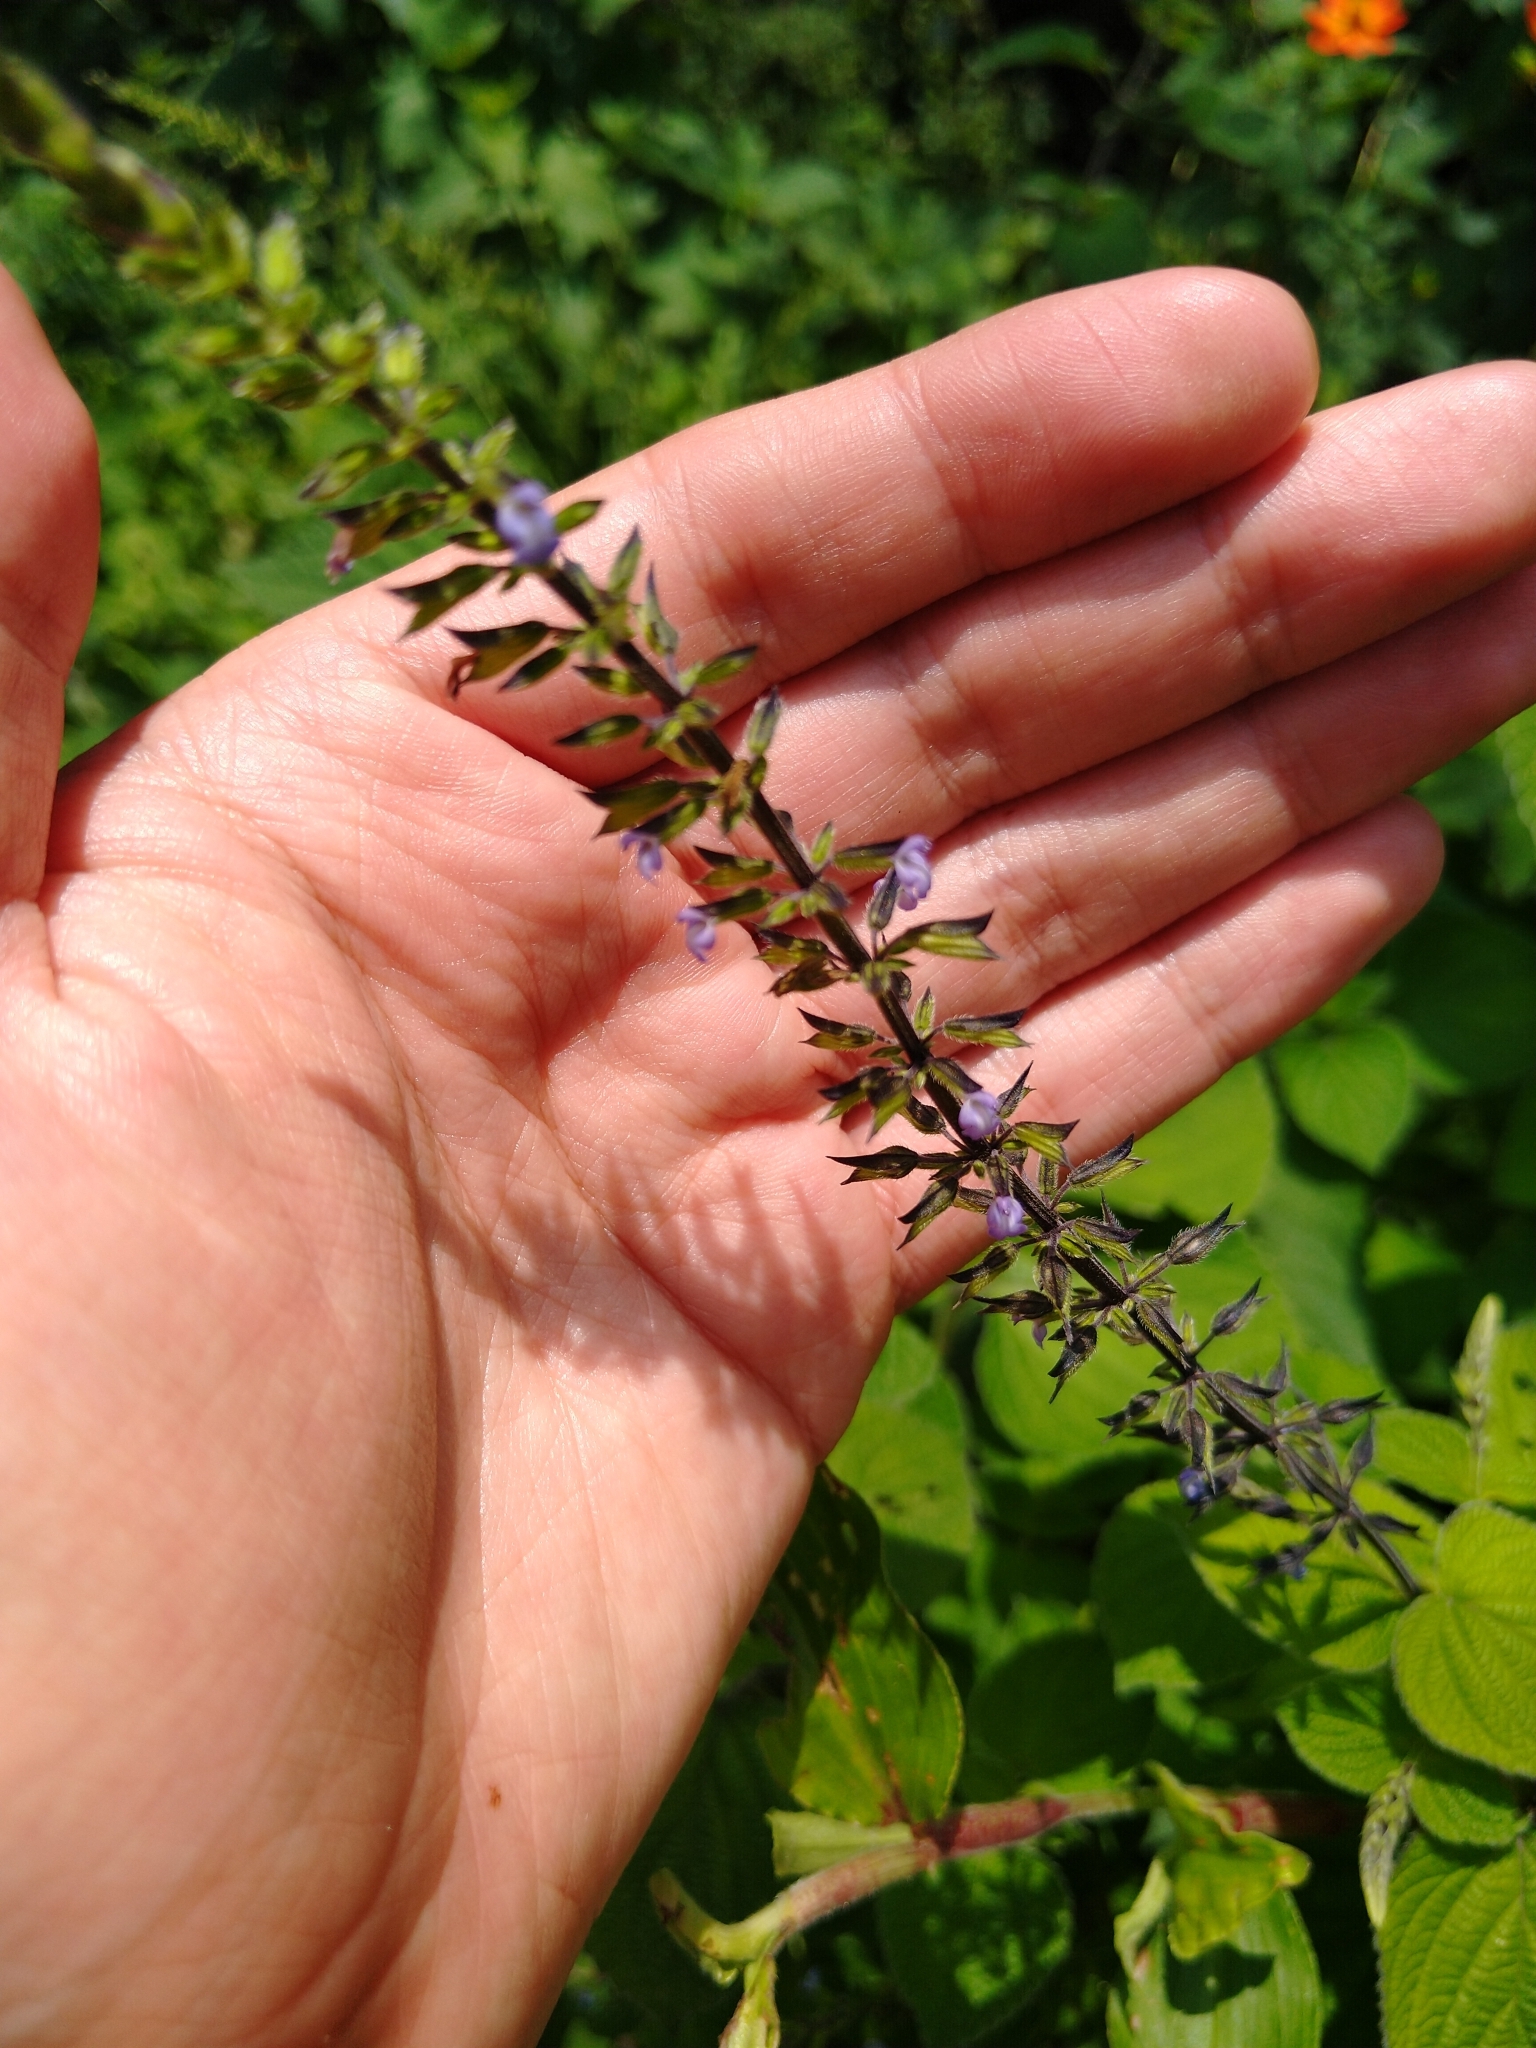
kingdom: Plantae
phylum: Tracheophyta
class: Magnoliopsida
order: Lamiales
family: Lamiaceae
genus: Salvia
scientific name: Salvia tiliifolia
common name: Lindenleaf sage
